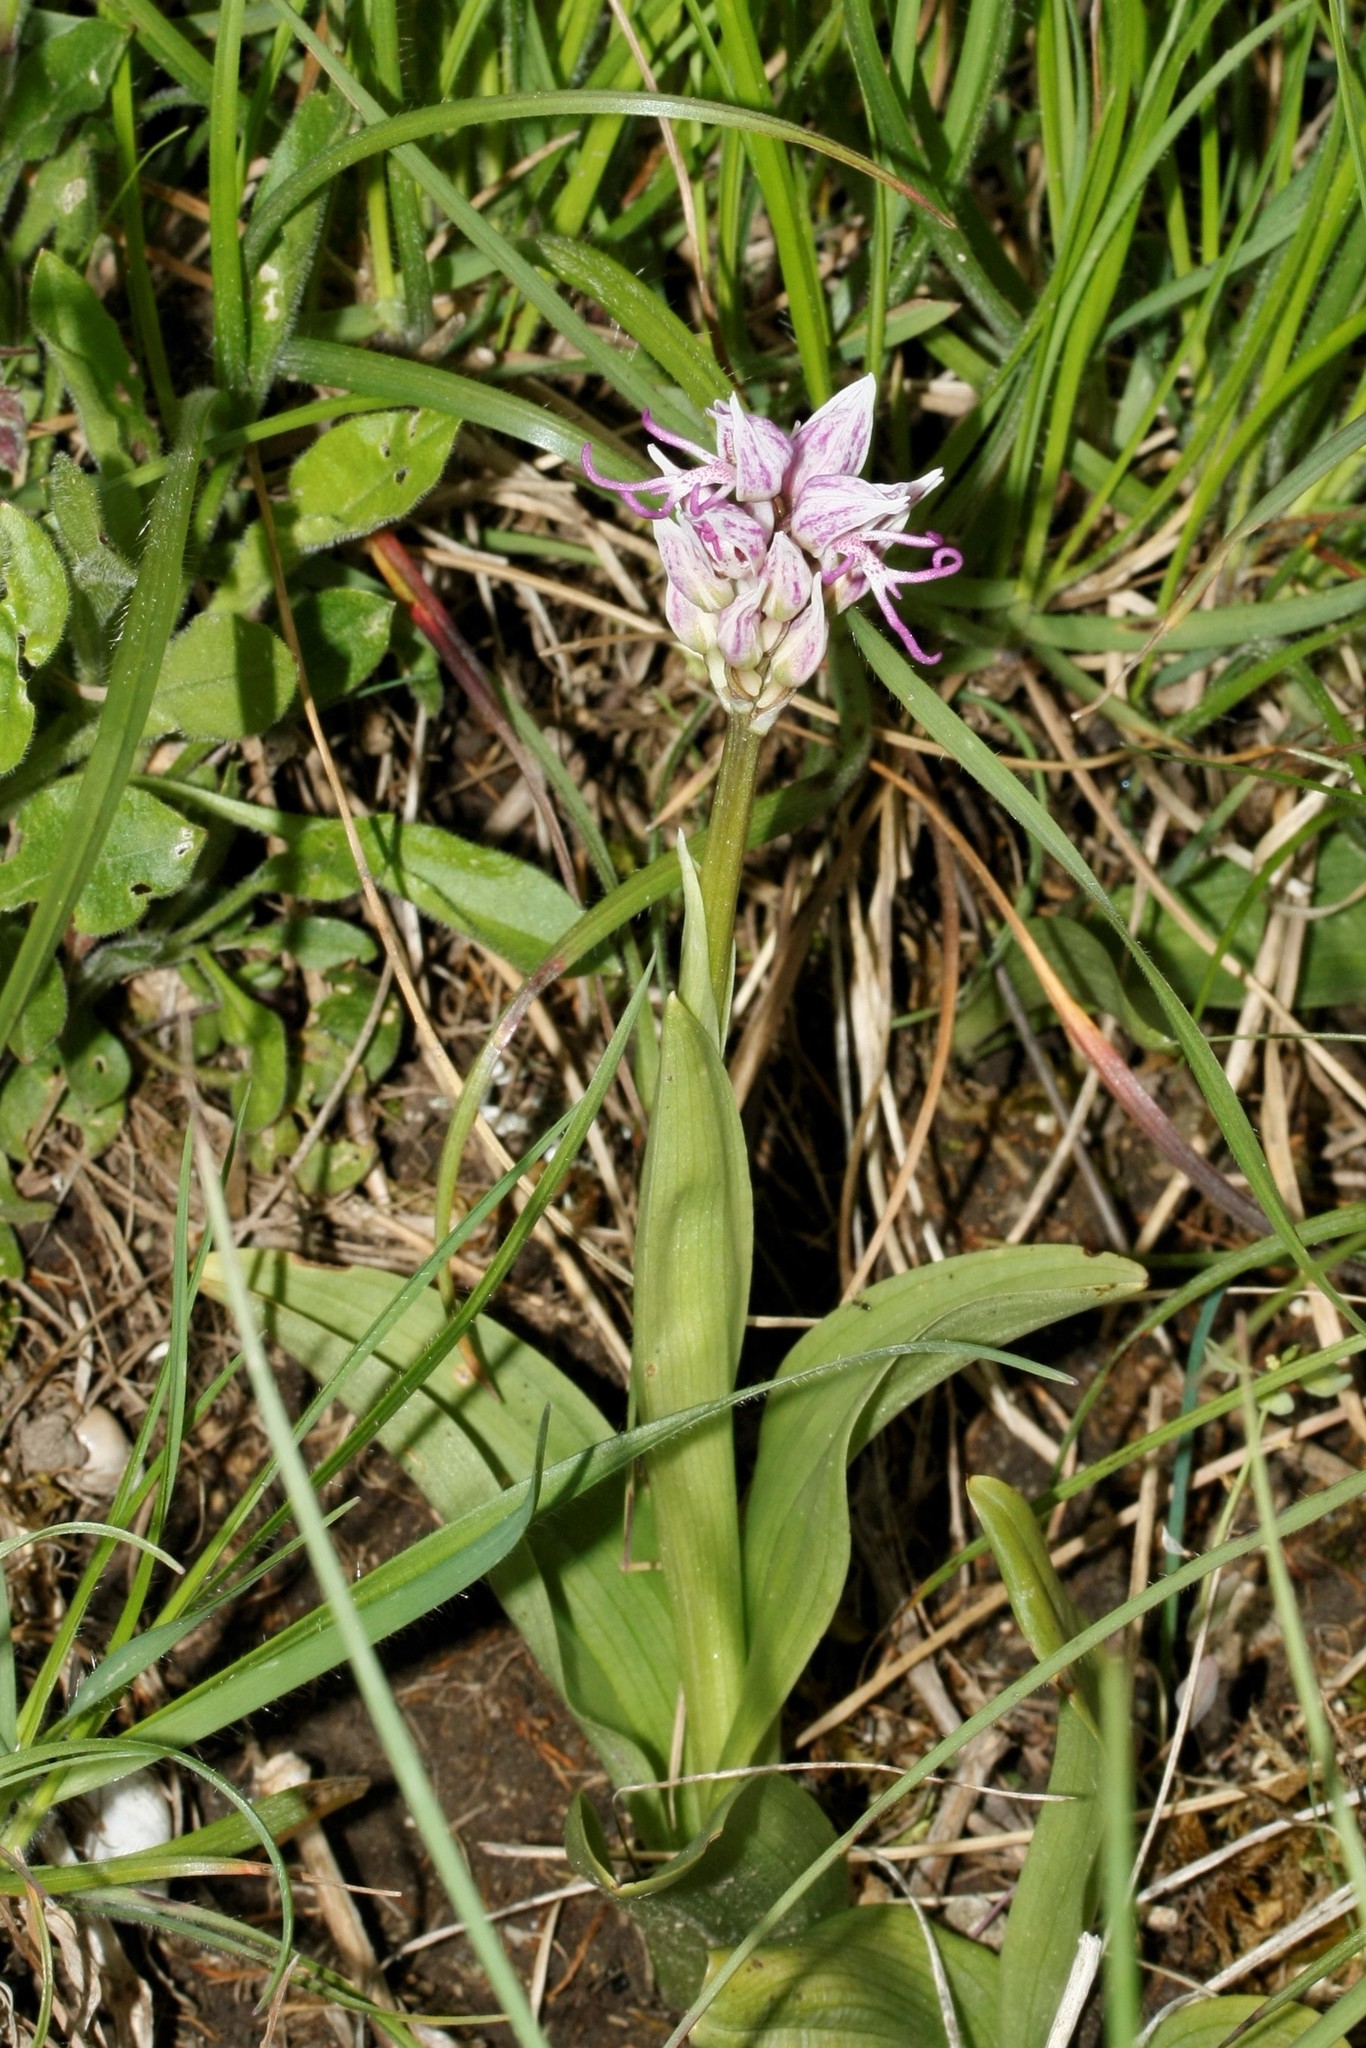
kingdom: Plantae
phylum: Tracheophyta
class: Liliopsida
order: Asparagales
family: Orchidaceae
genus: Orchis
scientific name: Orchis simia
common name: Monkey orchid
